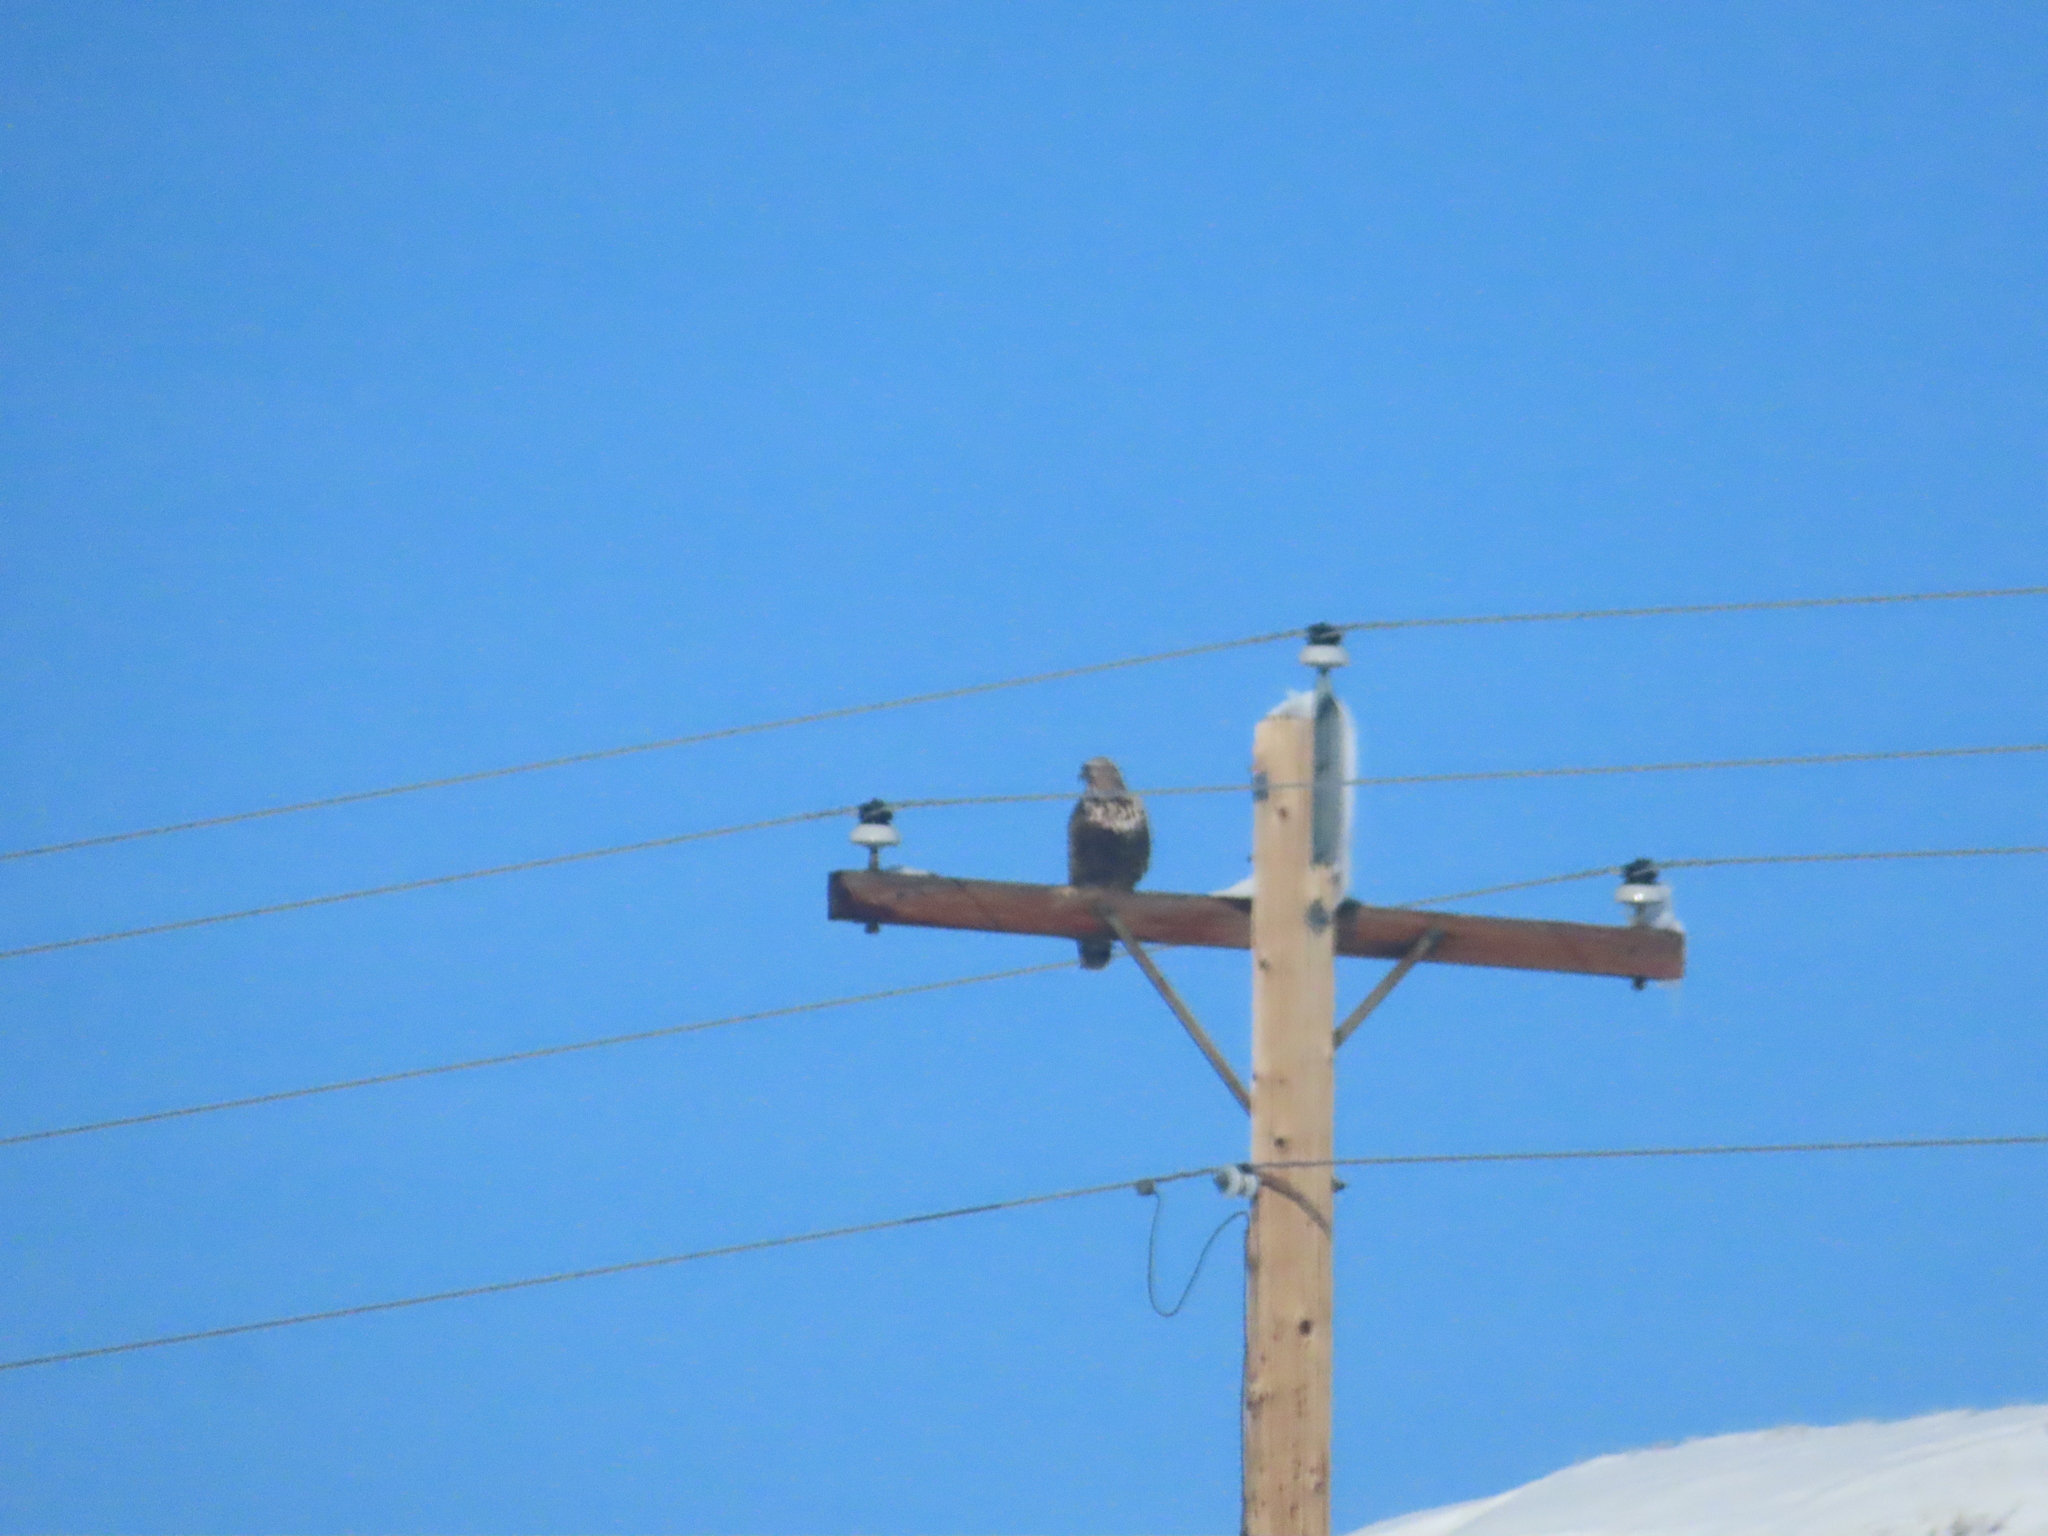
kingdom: Animalia
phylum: Chordata
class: Aves
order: Accipitriformes
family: Accipitridae
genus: Buteo
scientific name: Buteo lagopus
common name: Rough-legged buzzard
